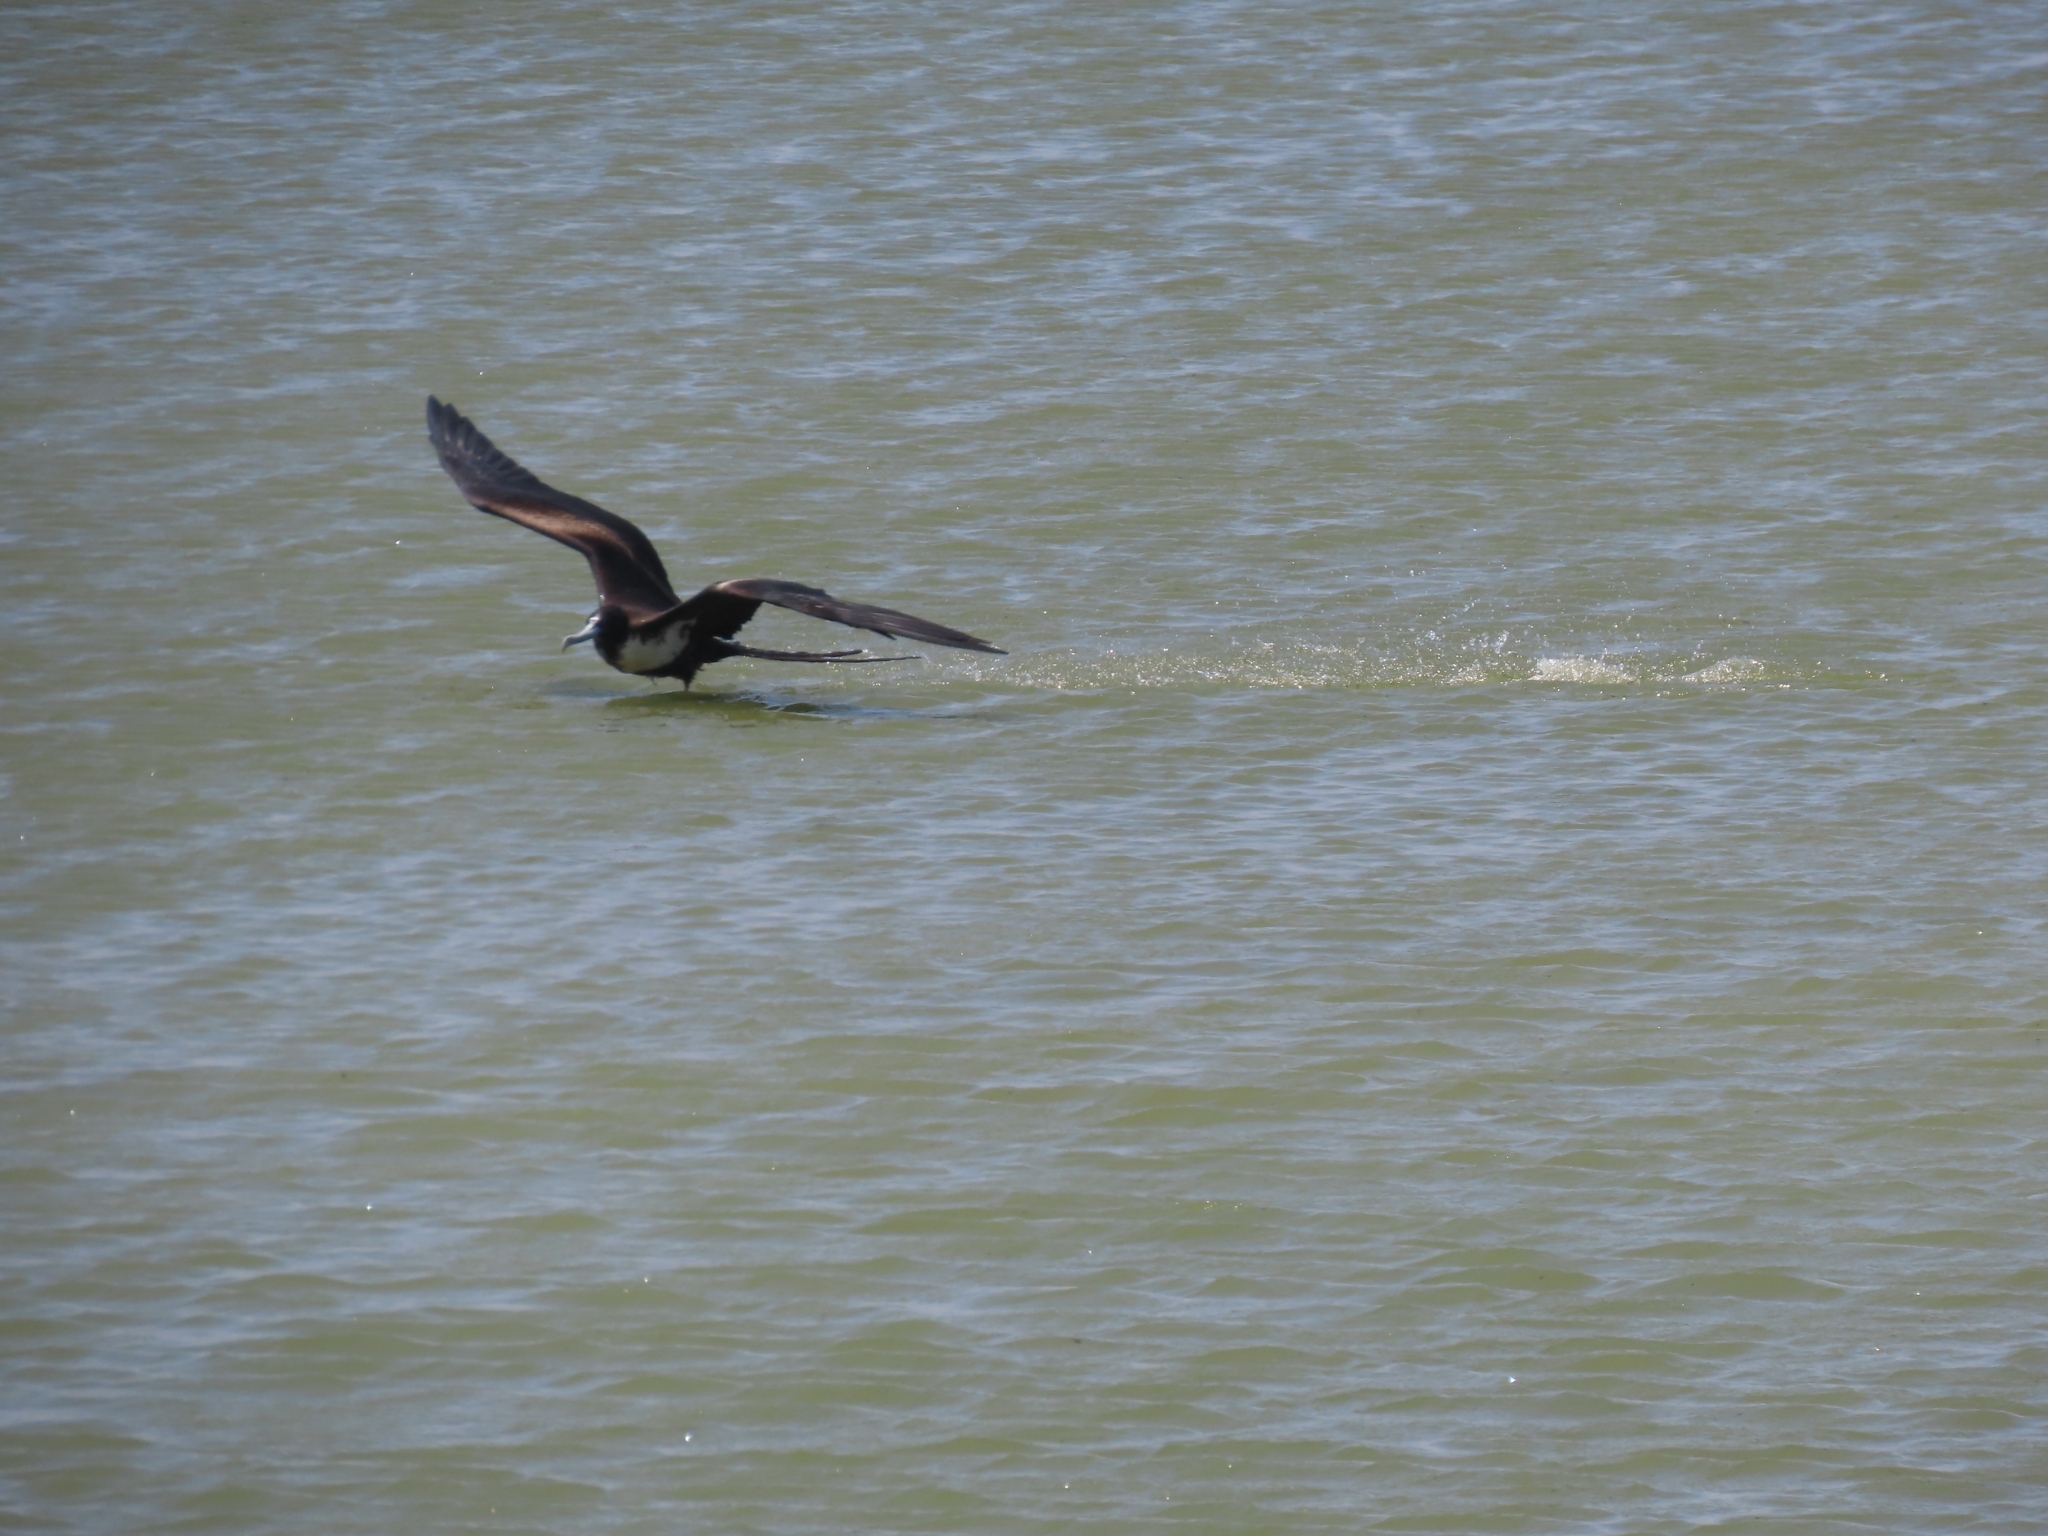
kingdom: Animalia
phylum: Chordata
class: Aves
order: Suliformes
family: Fregatidae
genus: Fregata
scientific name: Fregata magnificens
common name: Magnificent frigatebird
